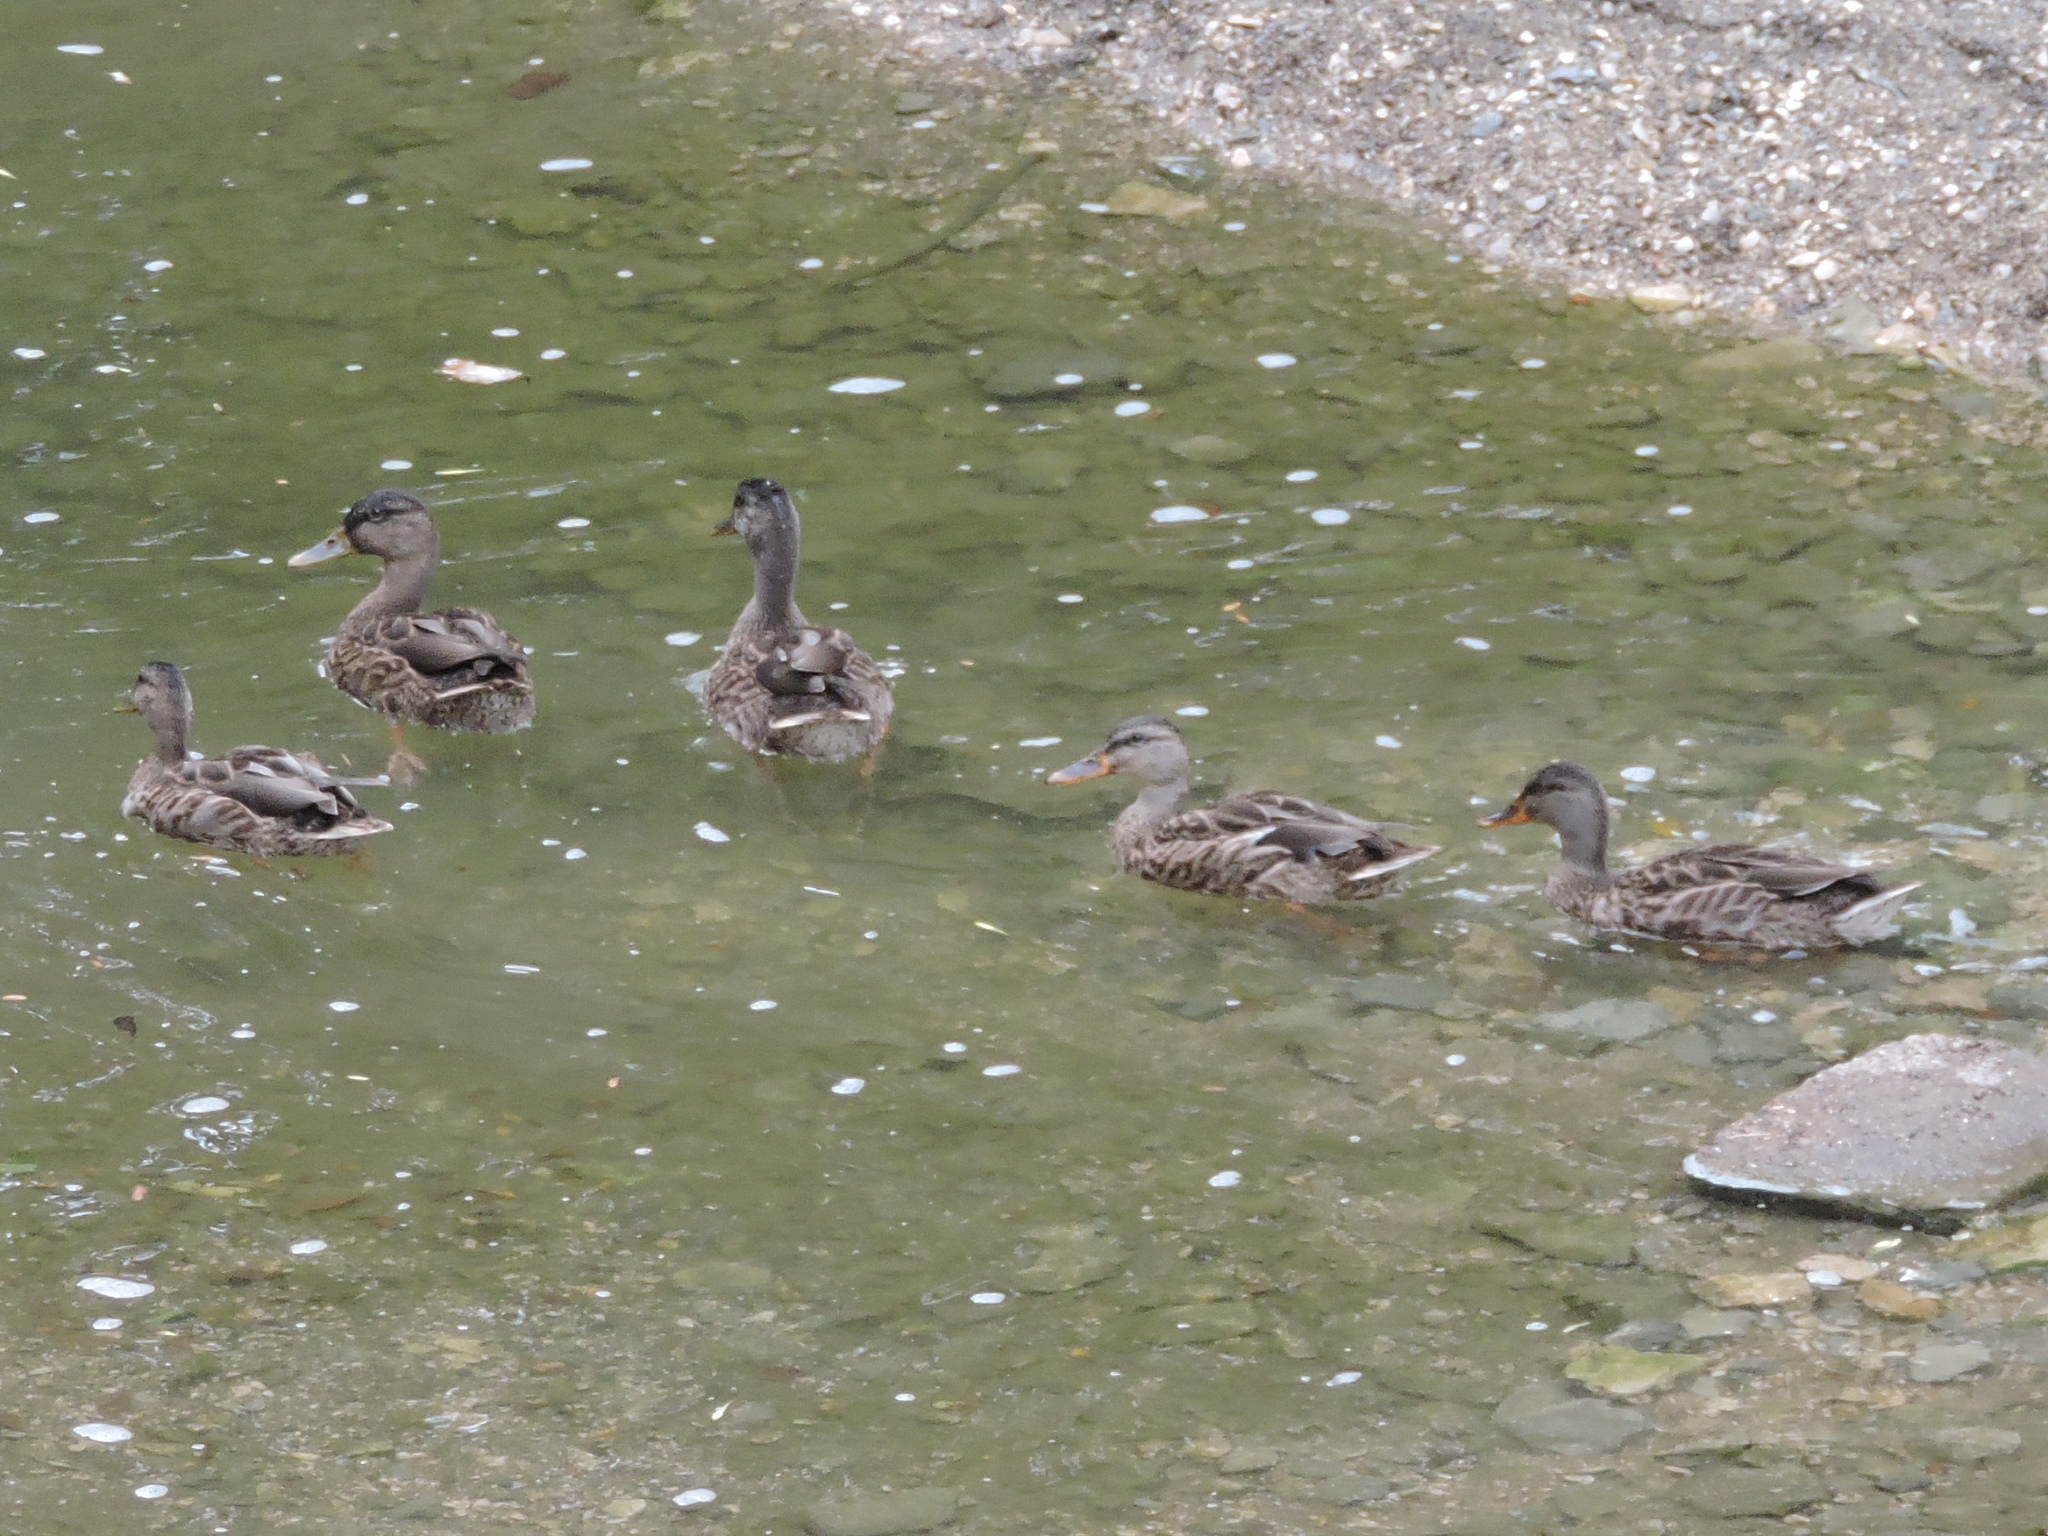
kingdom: Animalia
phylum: Chordata
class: Aves
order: Anseriformes
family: Anatidae
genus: Anas
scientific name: Anas platyrhynchos
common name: Mallard
